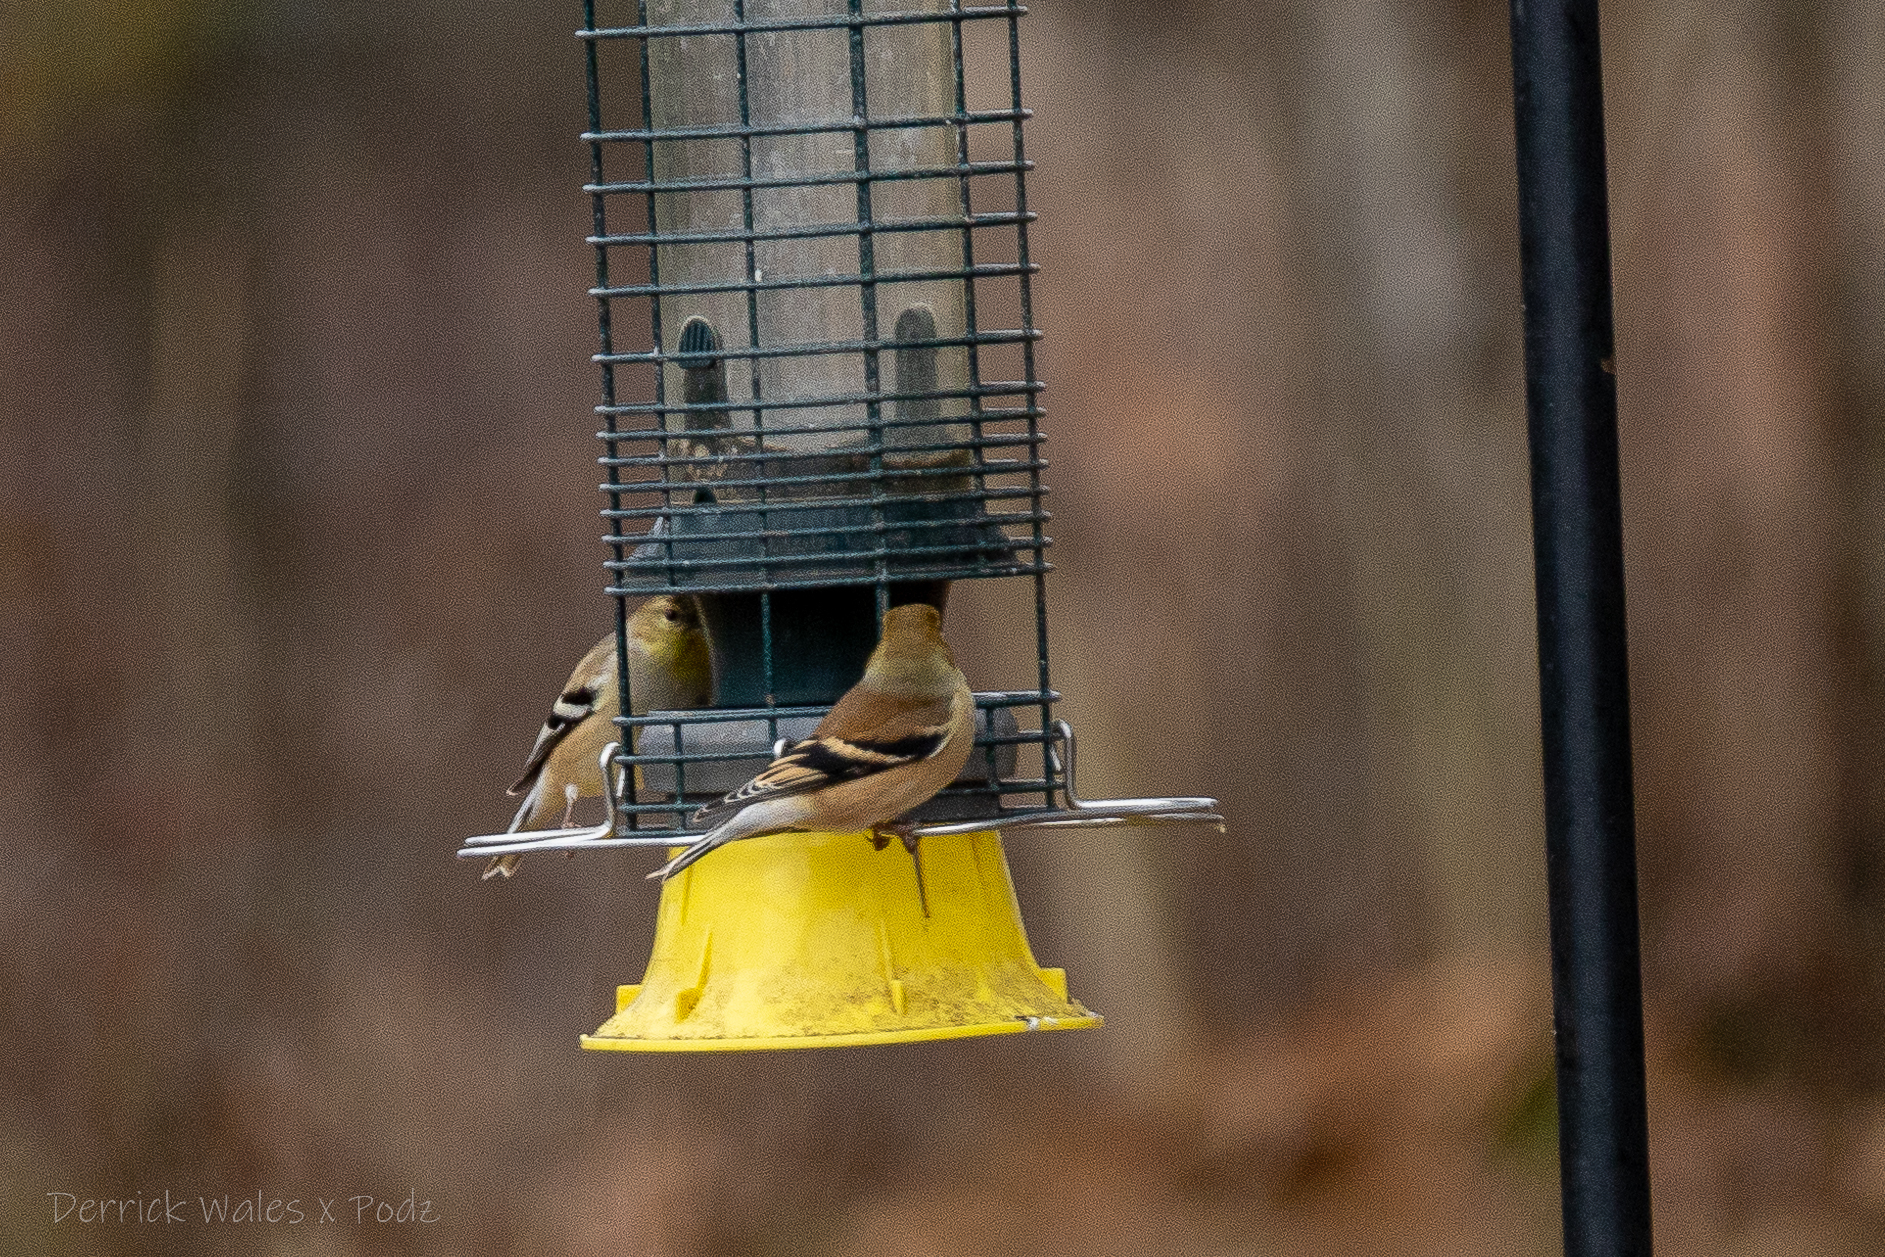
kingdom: Animalia
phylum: Chordata
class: Aves
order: Passeriformes
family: Fringillidae
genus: Spinus
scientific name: Spinus tristis
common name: American goldfinch
